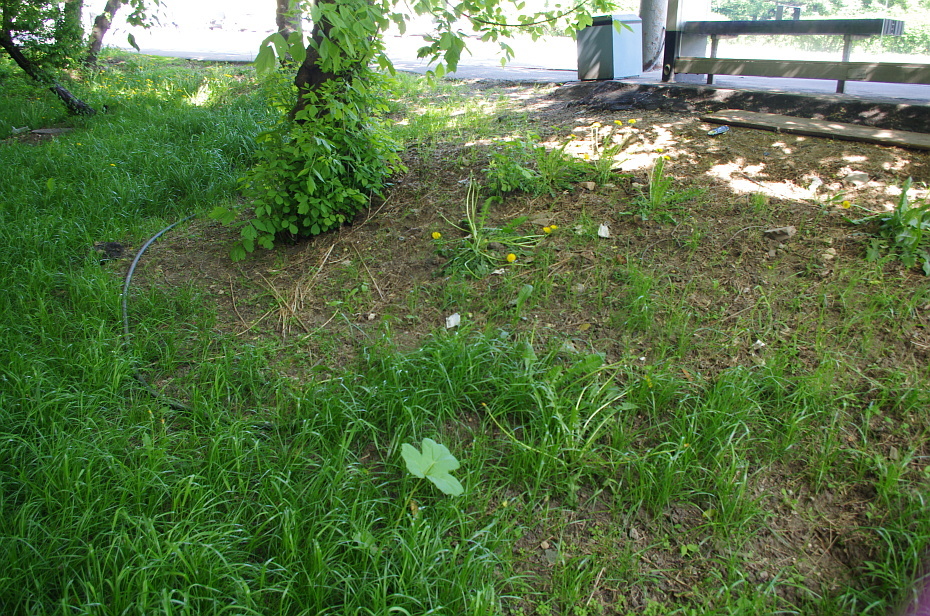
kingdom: Plantae
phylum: Tracheophyta
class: Magnoliopsida
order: Apiales
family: Apiaceae
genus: Heracleum
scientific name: Heracleum sosnowskyi
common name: Sosnowsky's hogweed
